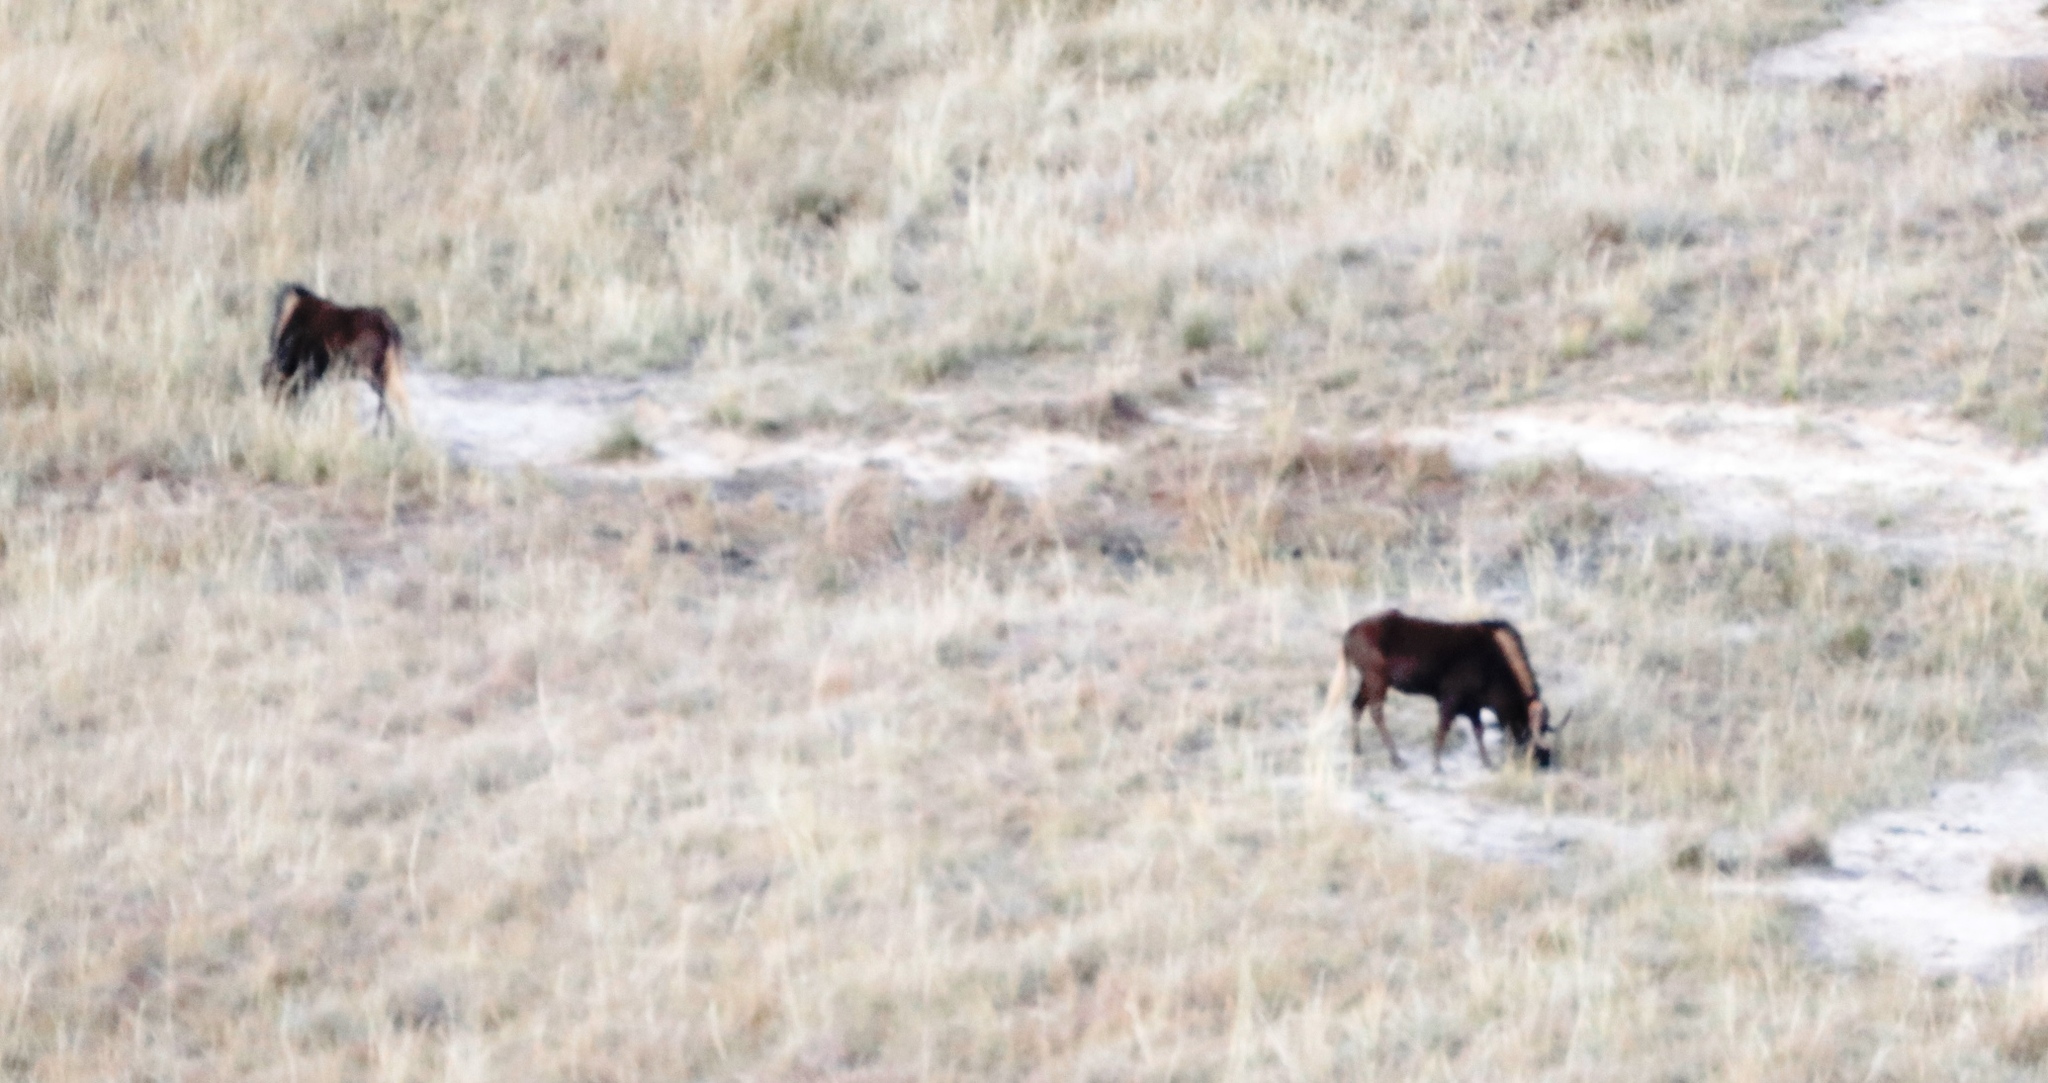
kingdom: Animalia
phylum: Chordata
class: Mammalia
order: Artiodactyla
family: Bovidae
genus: Connochaetes
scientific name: Connochaetes gnou
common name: Black wildebeest
